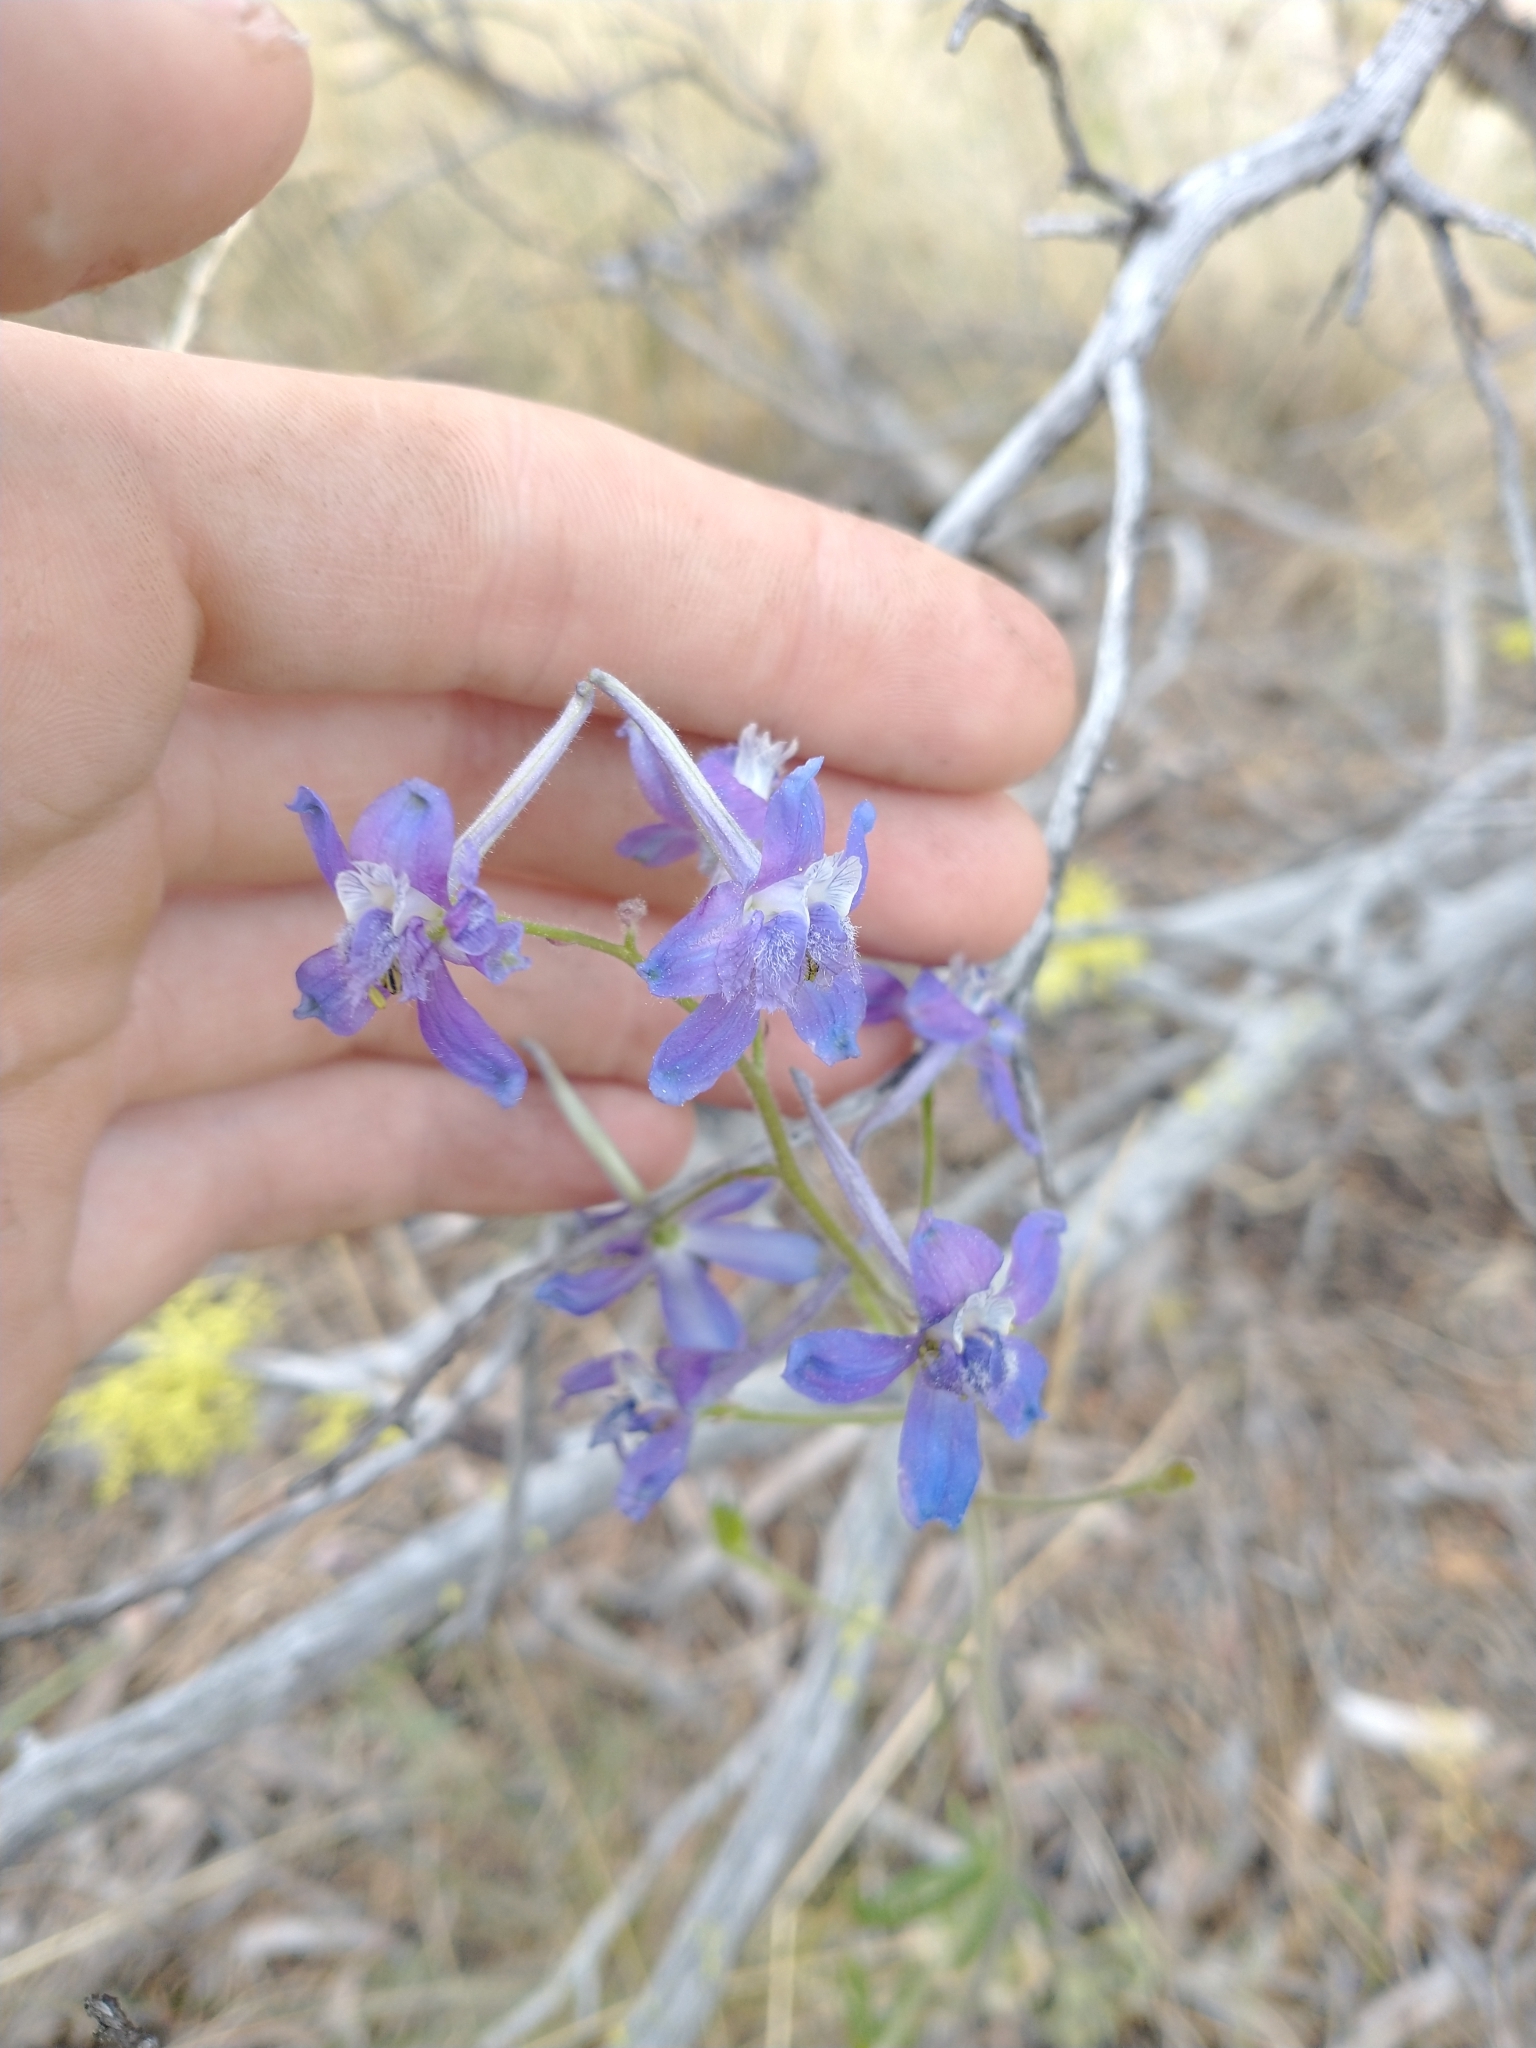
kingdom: Plantae
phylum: Tracheophyta
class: Magnoliopsida
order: Ranunculales
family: Ranunculaceae
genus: Delphinium
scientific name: Delphinium nuttallianum
